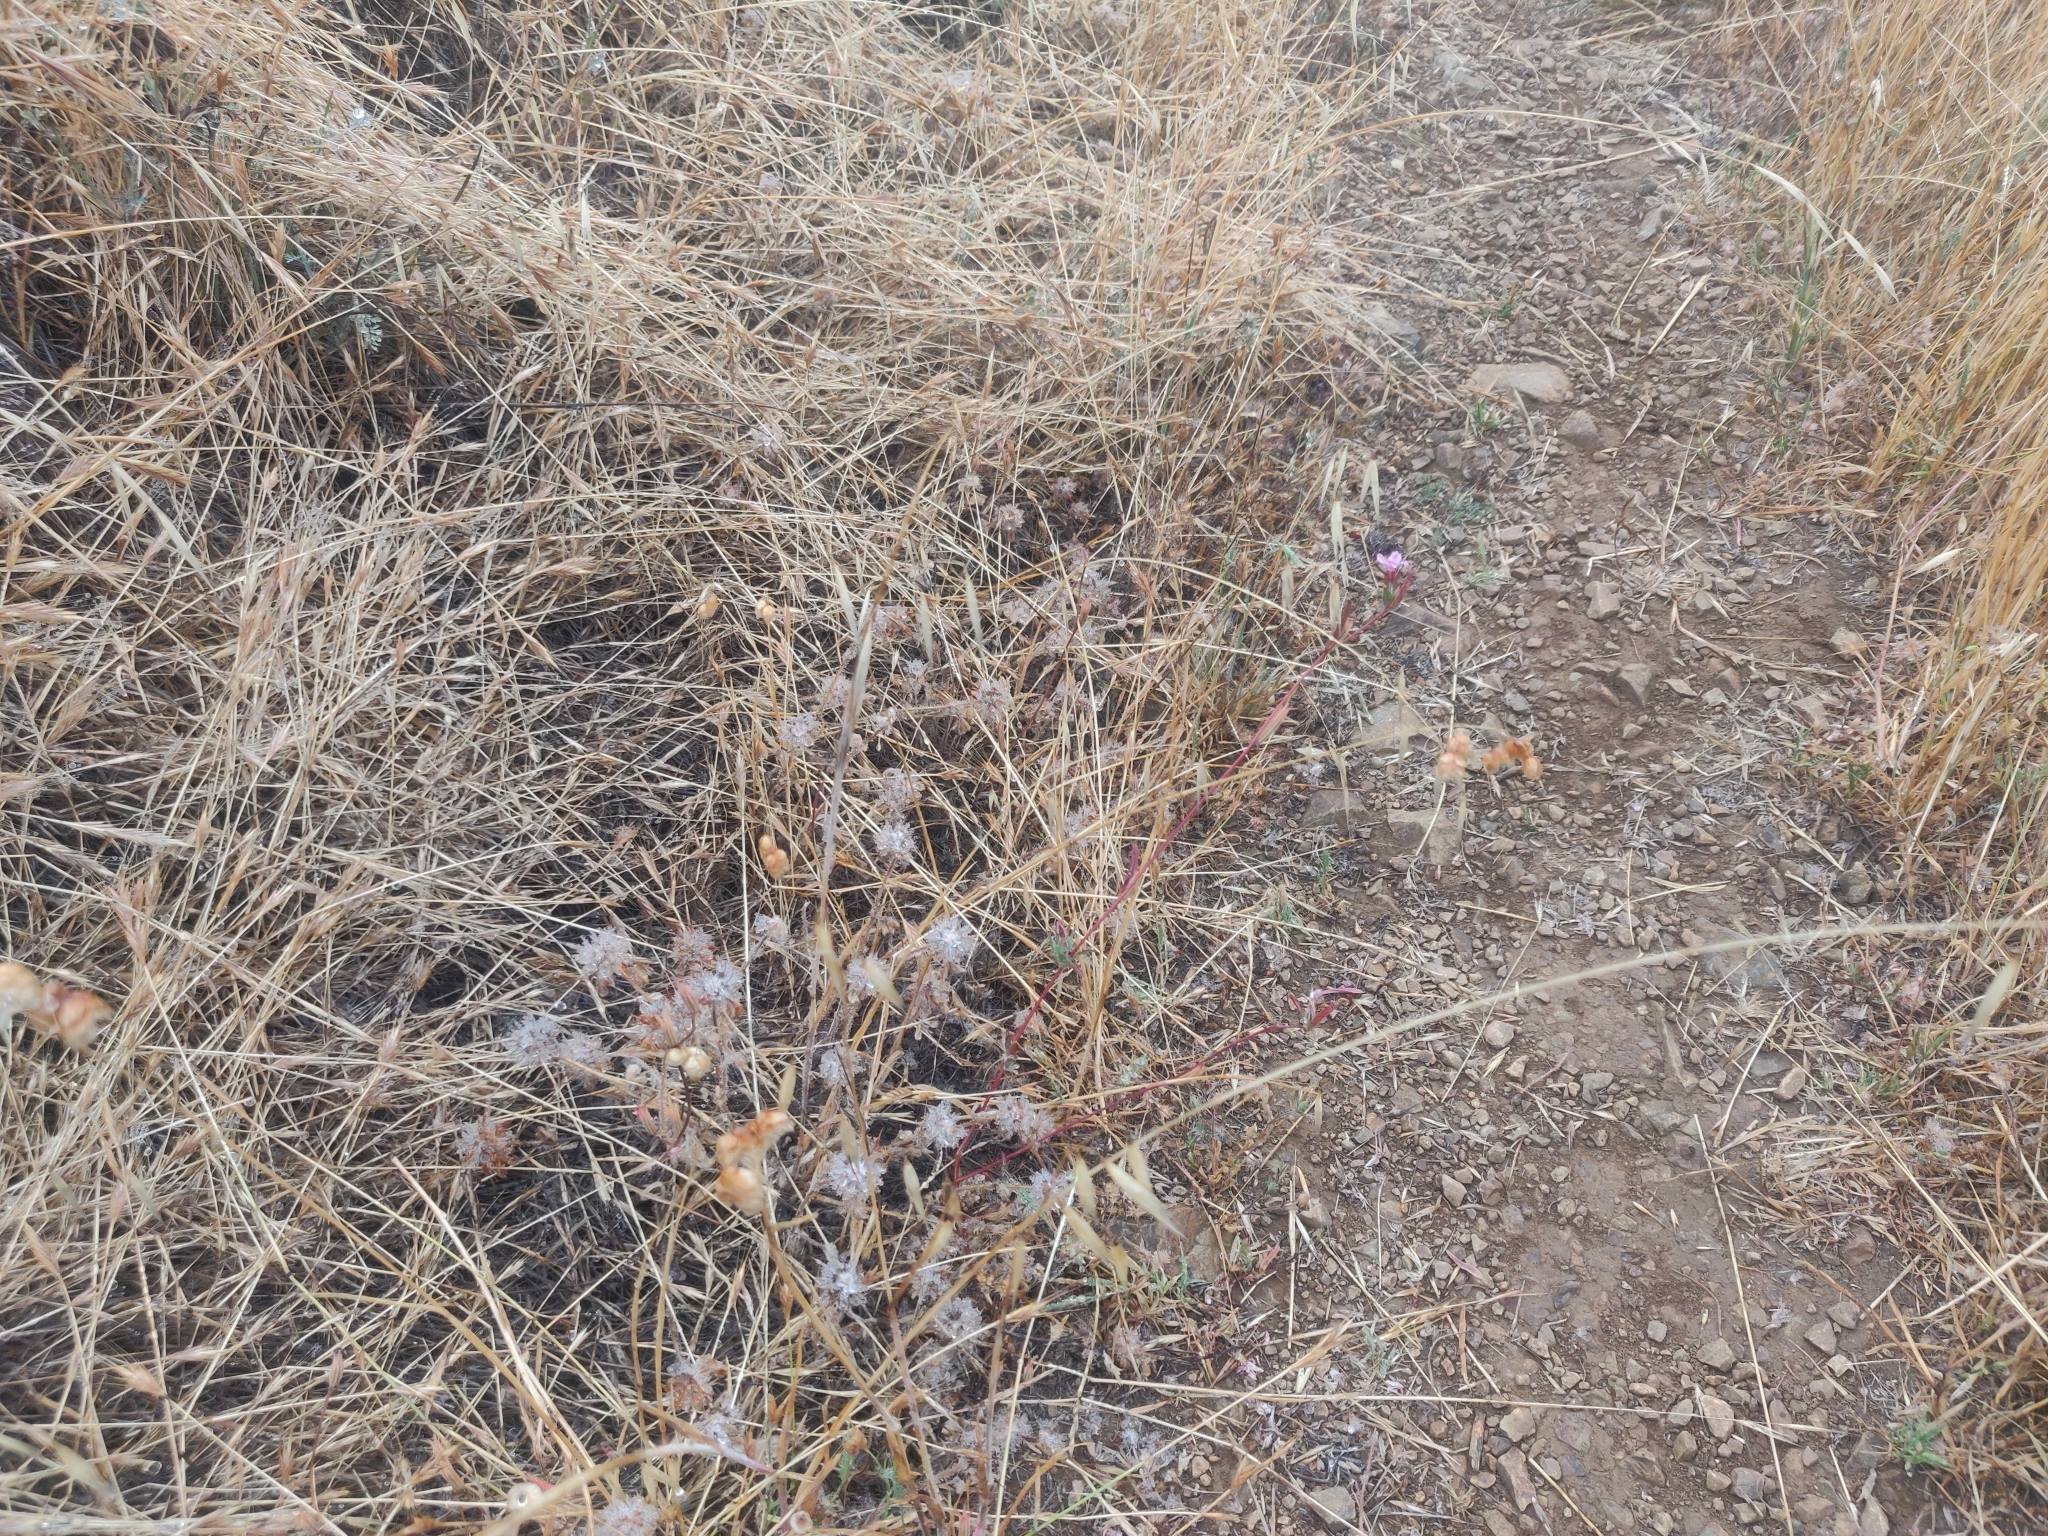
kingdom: Plantae
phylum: Tracheophyta
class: Magnoliopsida
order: Myrtales
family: Onagraceae
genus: Clarkia
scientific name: Clarkia purpurea
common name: Purple clarkia
